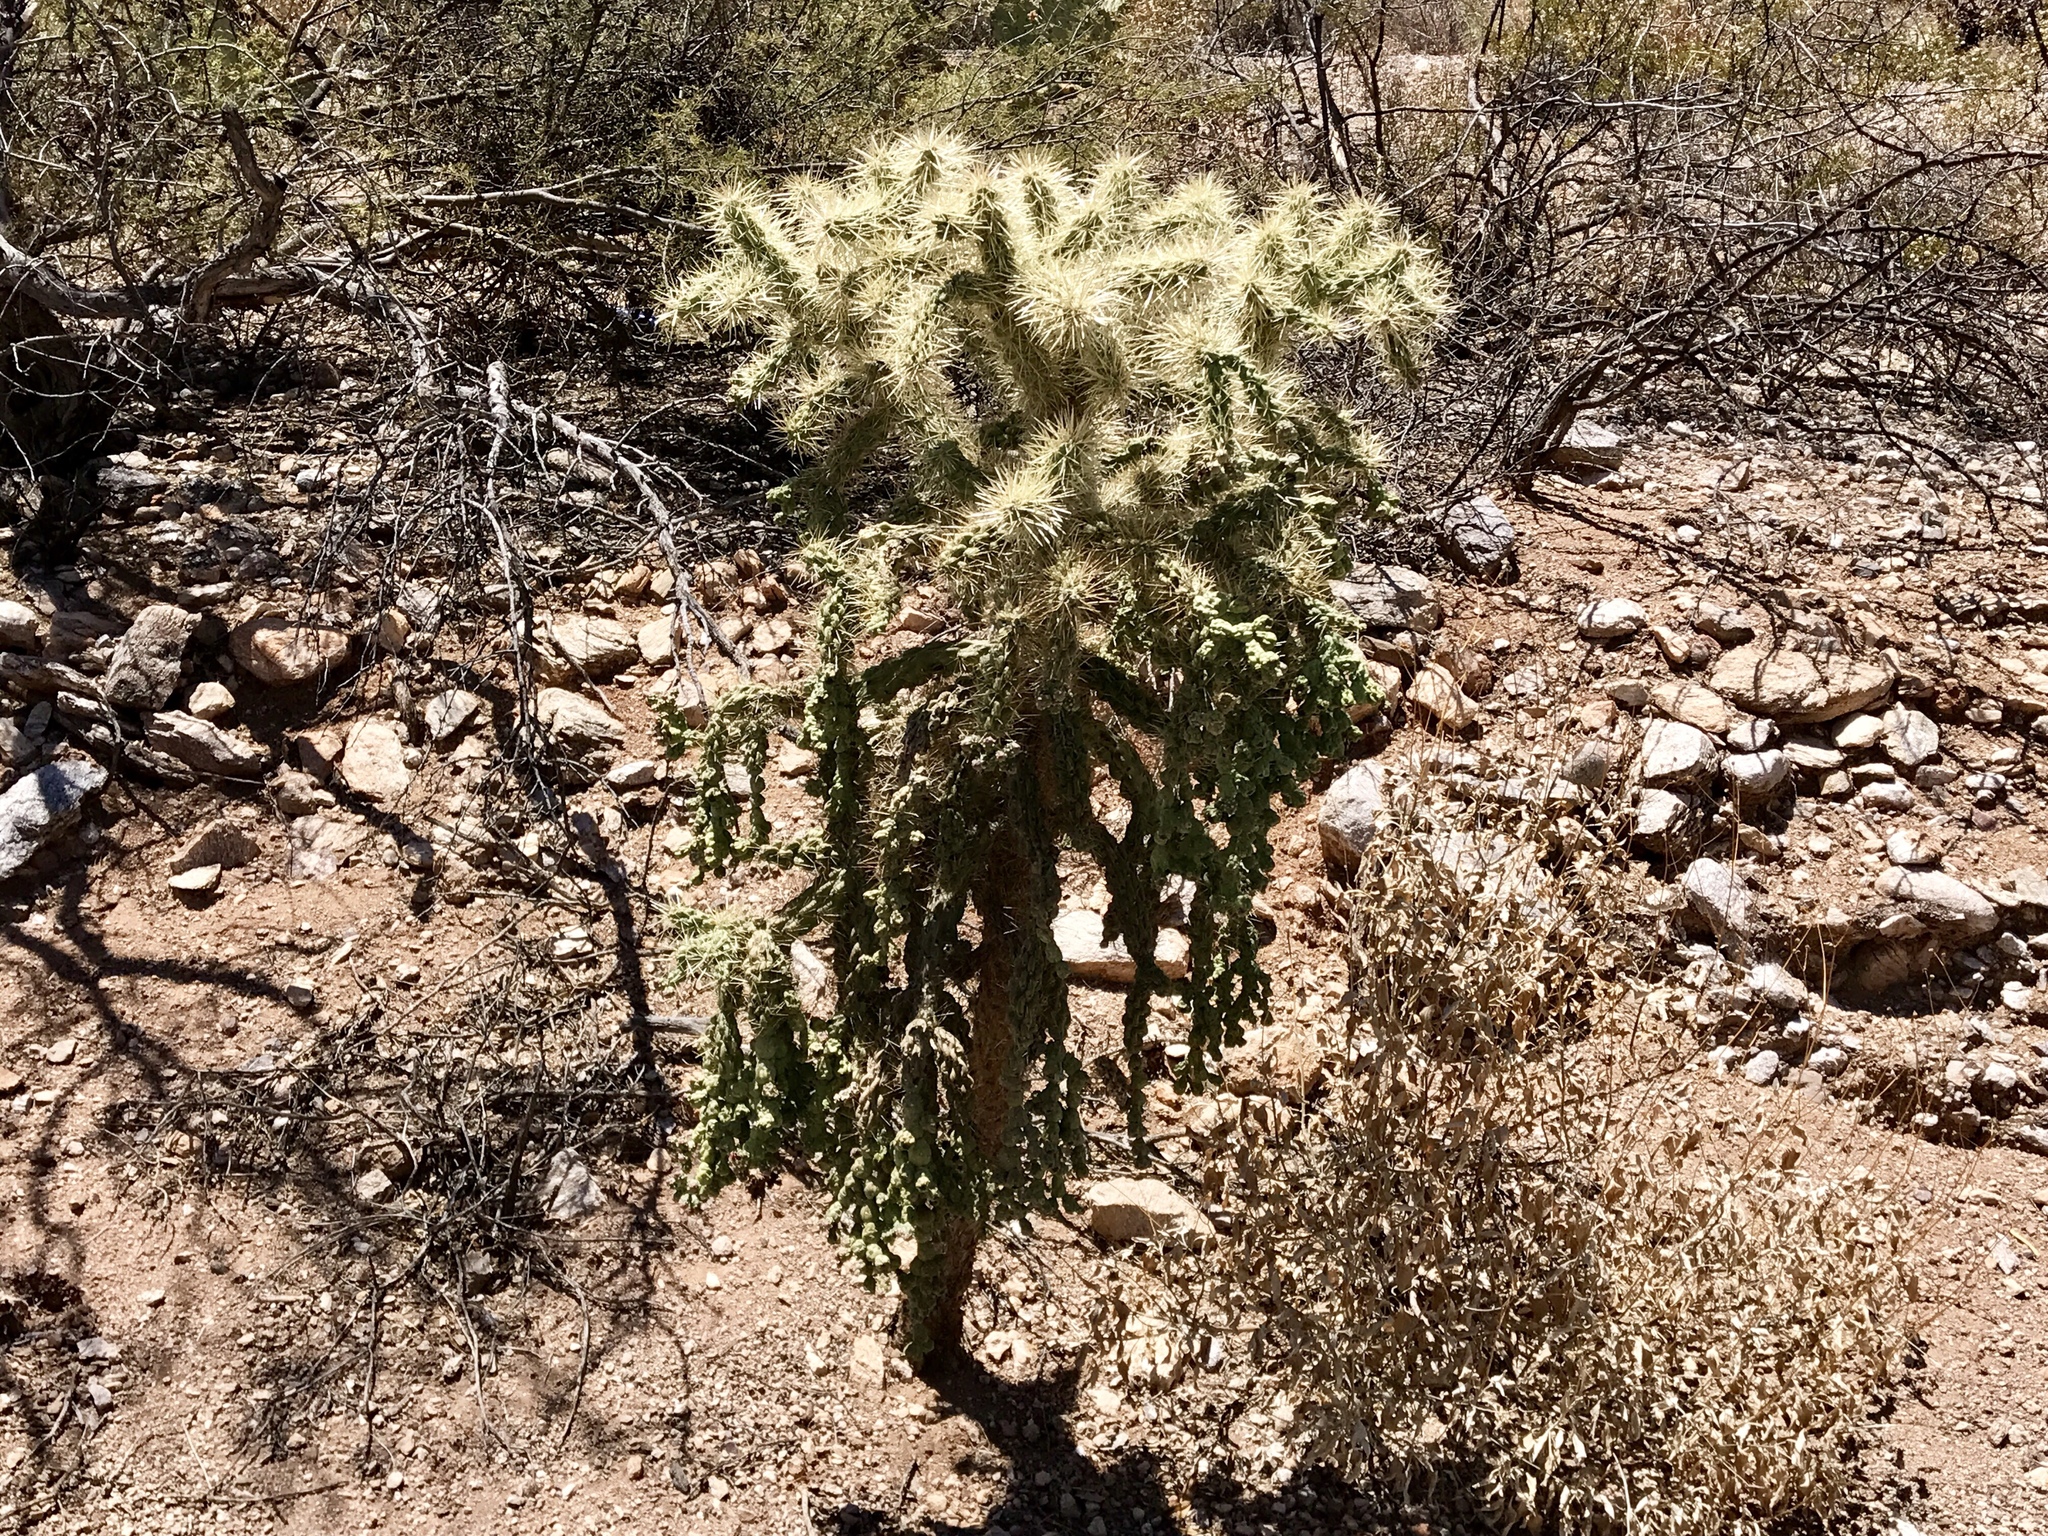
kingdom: Plantae
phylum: Tracheophyta
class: Magnoliopsida
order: Caryophyllales
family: Cactaceae
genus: Cylindropuntia
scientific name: Cylindropuntia fulgida
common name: Jumping cholla
